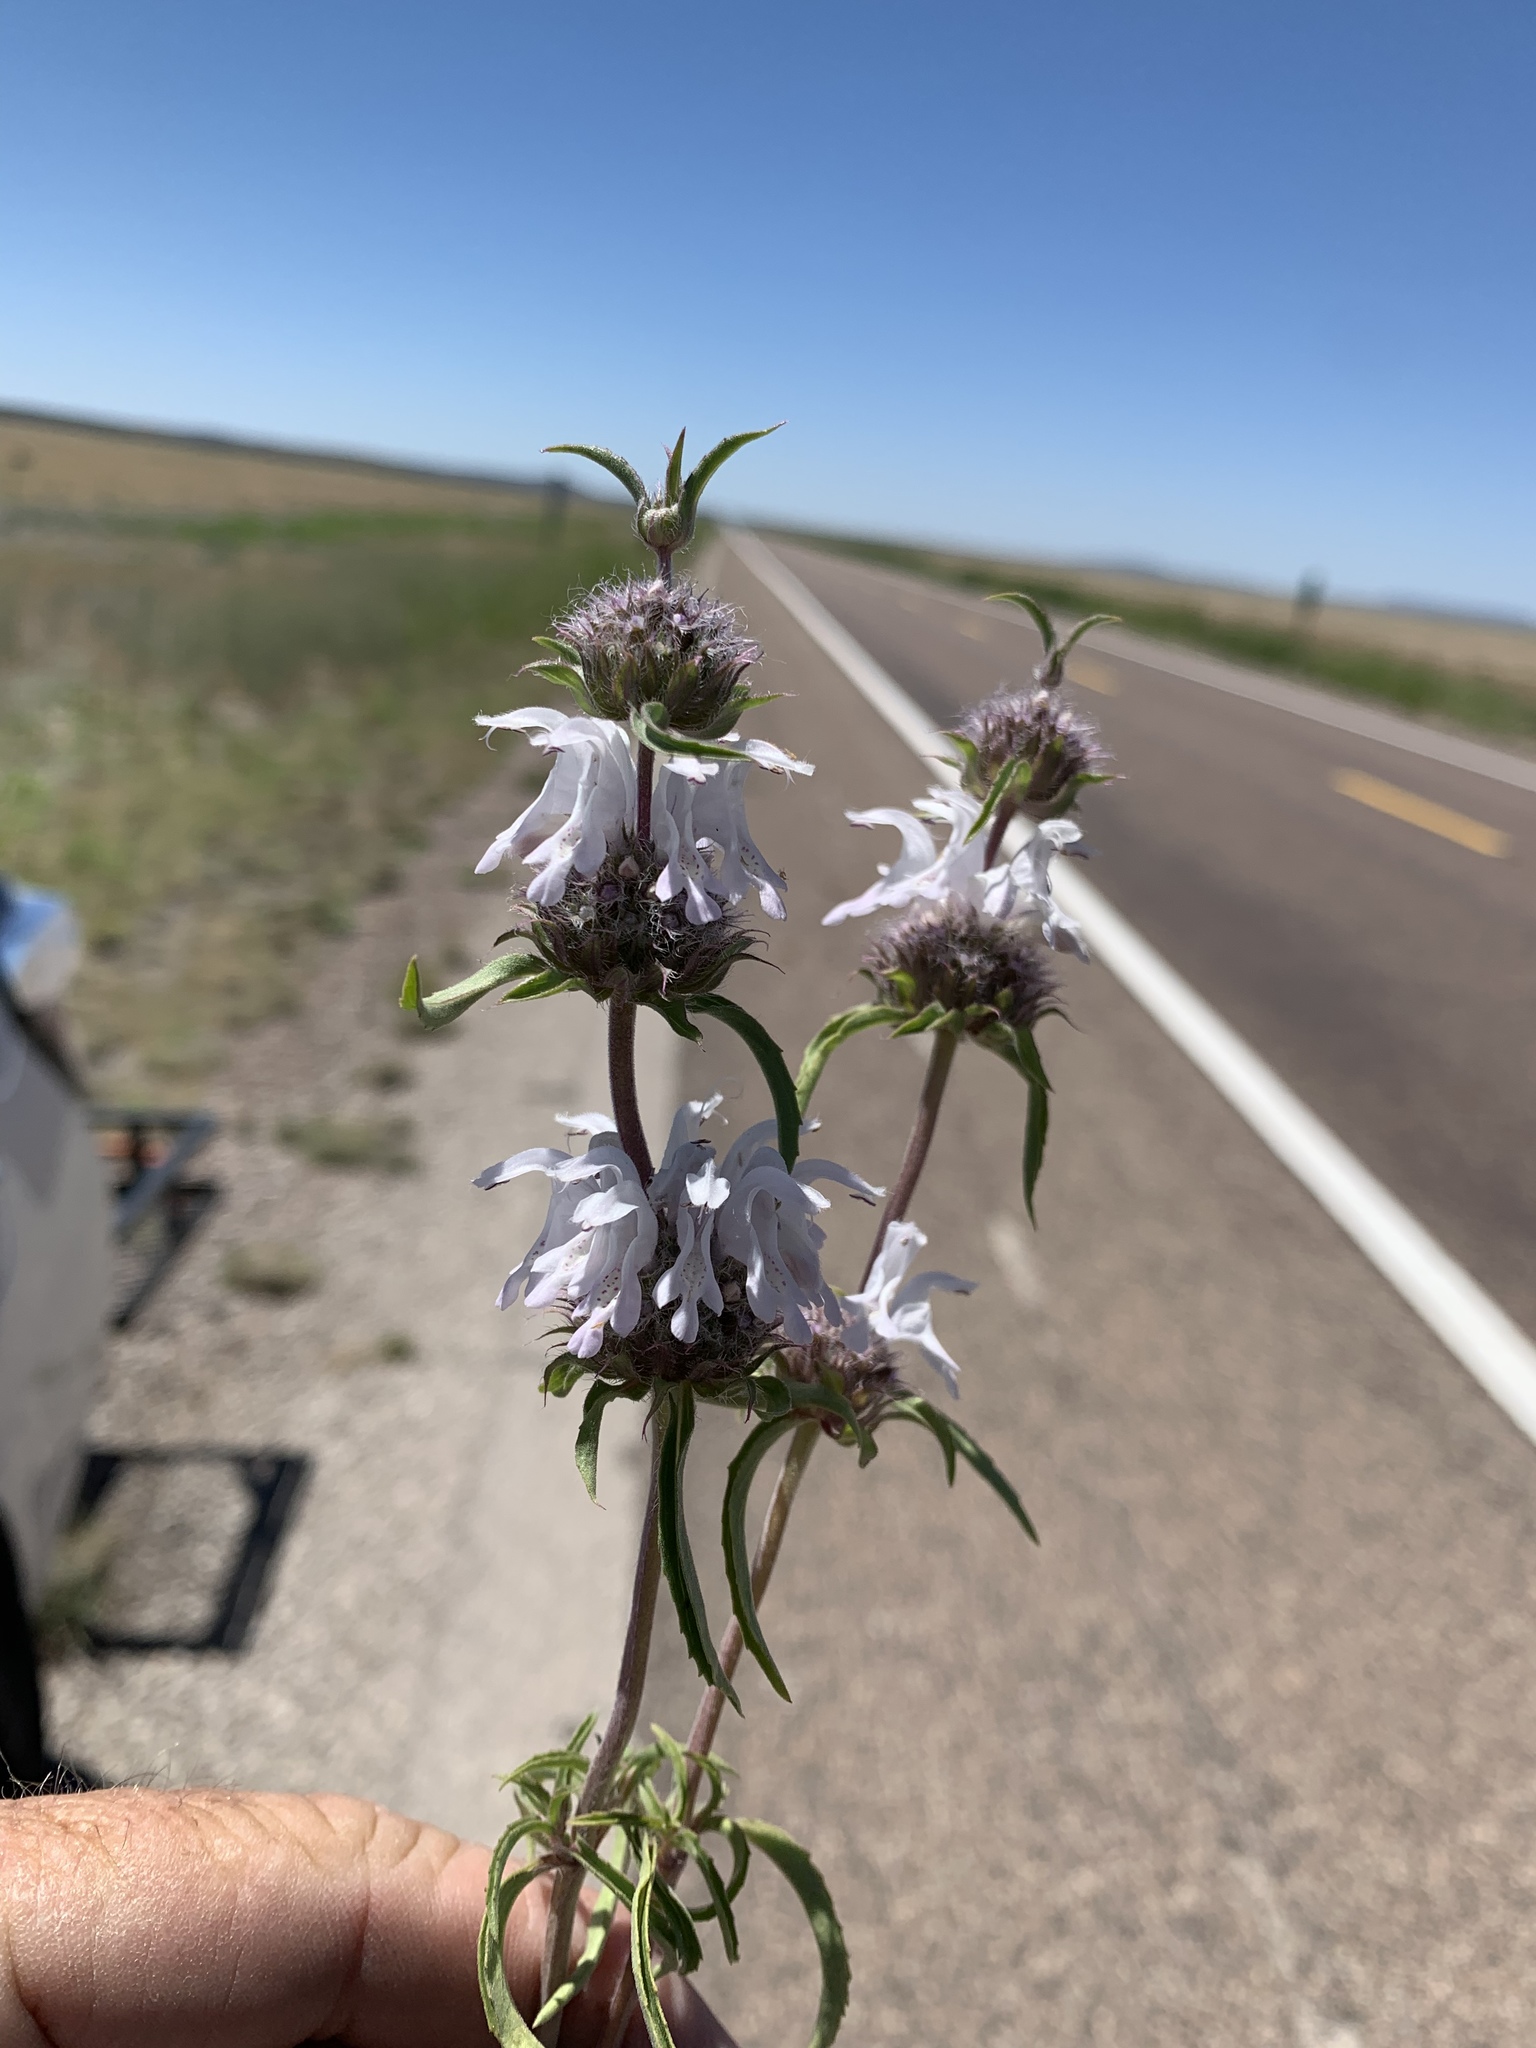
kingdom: Plantae
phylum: Tracheophyta
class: Magnoliopsida
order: Lamiales
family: Lamiaceae
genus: Monarda
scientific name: Monarda pectinata
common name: Plains beebalm
